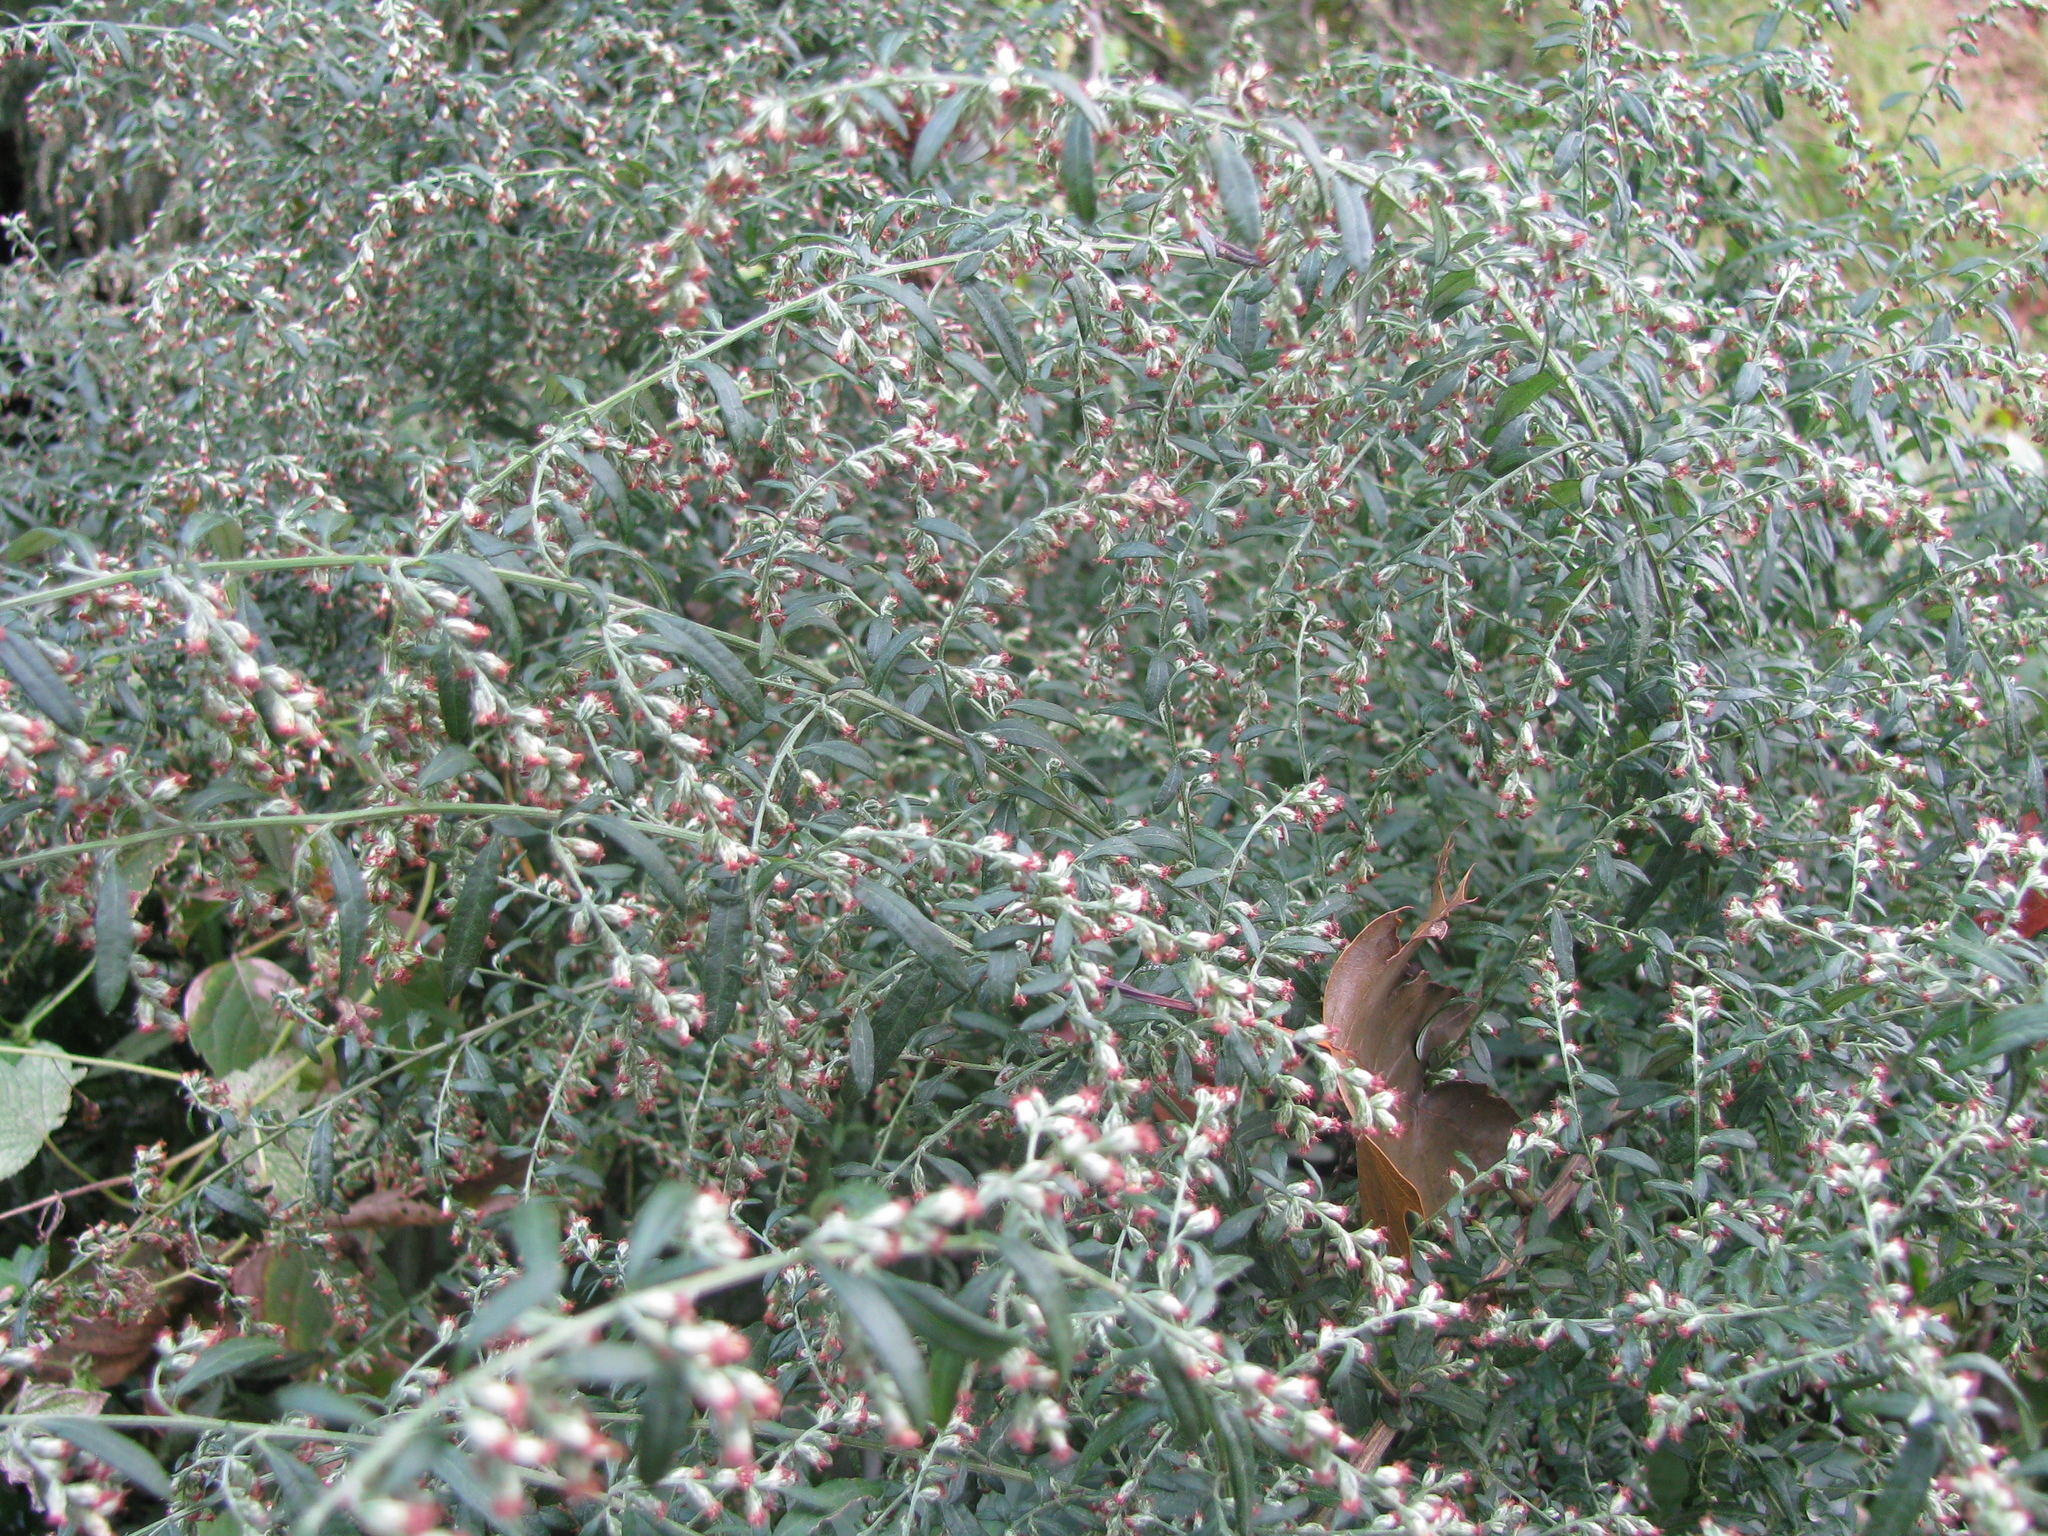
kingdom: Plantae
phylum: Tracheophyta
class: Magnoliopsida
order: Asterales
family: Asteraceae
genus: Artemisia
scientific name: Artemisia vulgaris
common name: Mugwort
